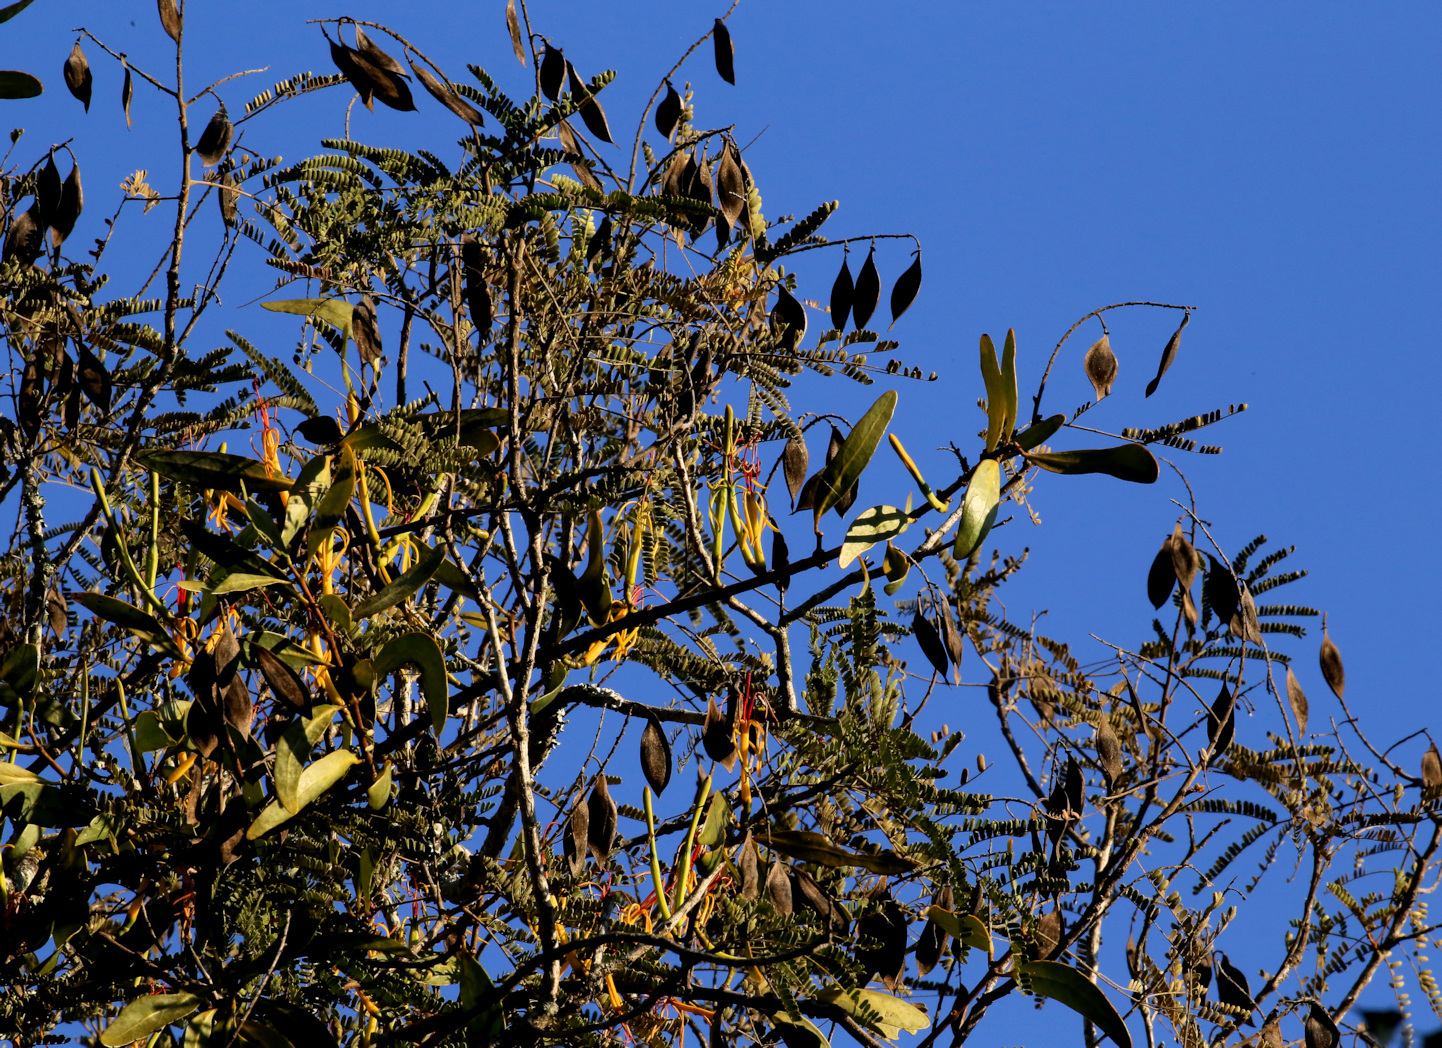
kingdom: Plantae
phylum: Tracheophyta
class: Magnoliopsida
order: Fabales
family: Fabaceae
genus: Peltophorum
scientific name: Peltophorum africanum
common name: African black wattle
